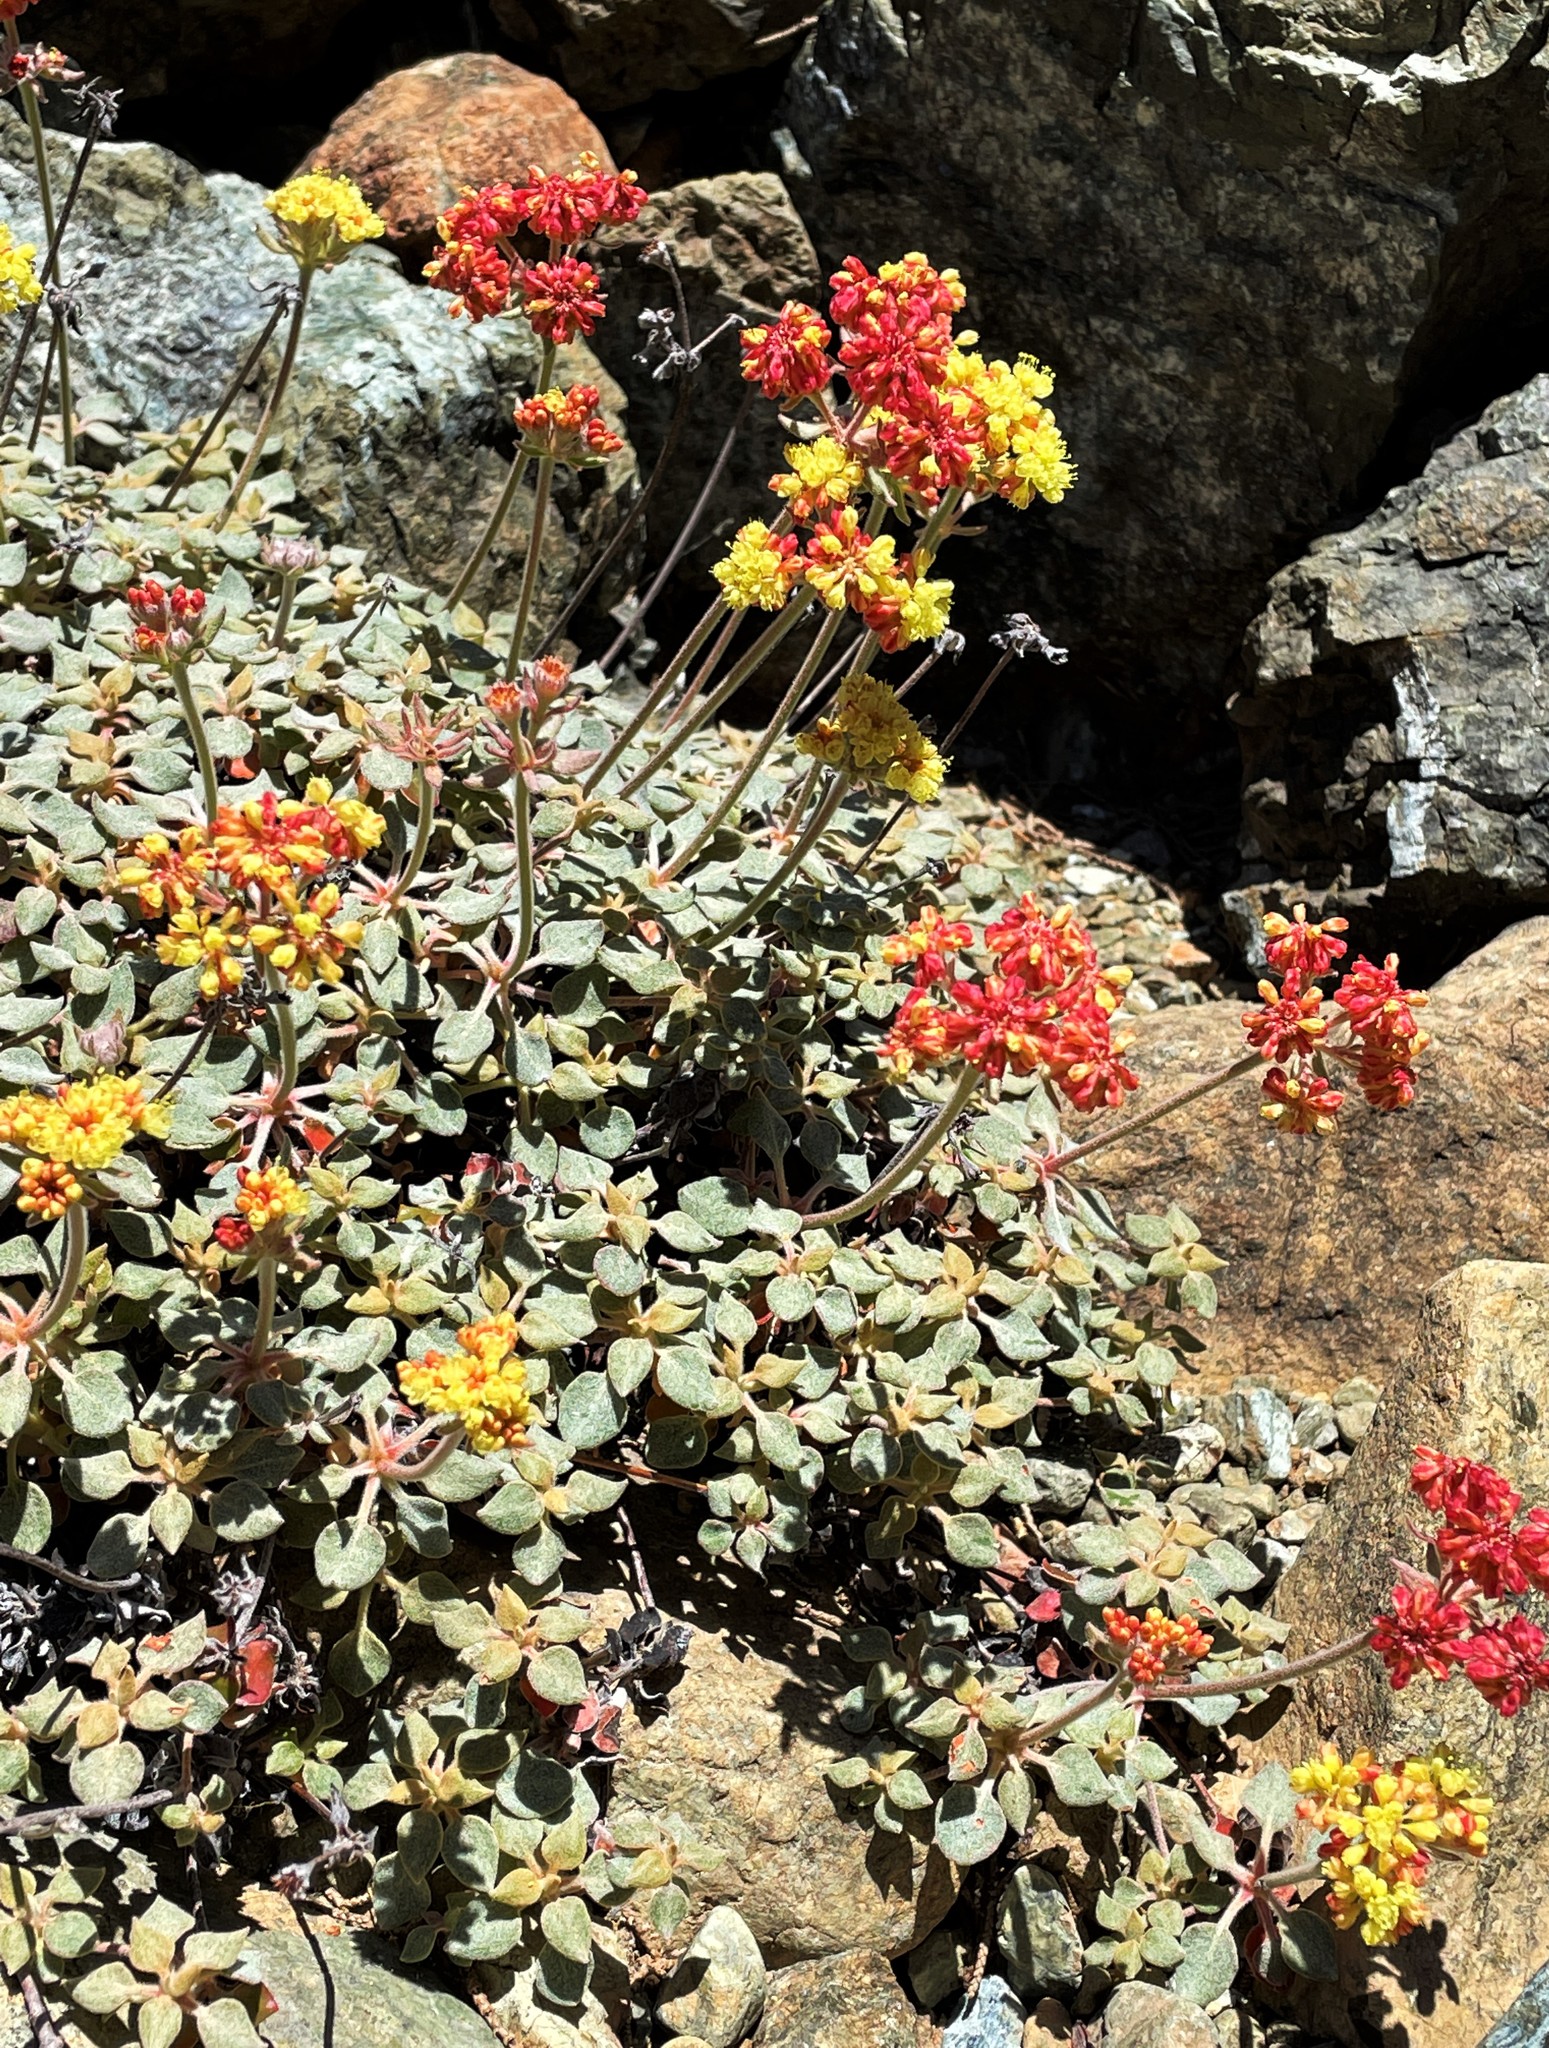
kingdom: Plantae
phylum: Tracheophyta
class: Magnoliopsida
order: Caryophyllales
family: Polygonaceae
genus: Eriogonum
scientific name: Eriogonum cedrorum
